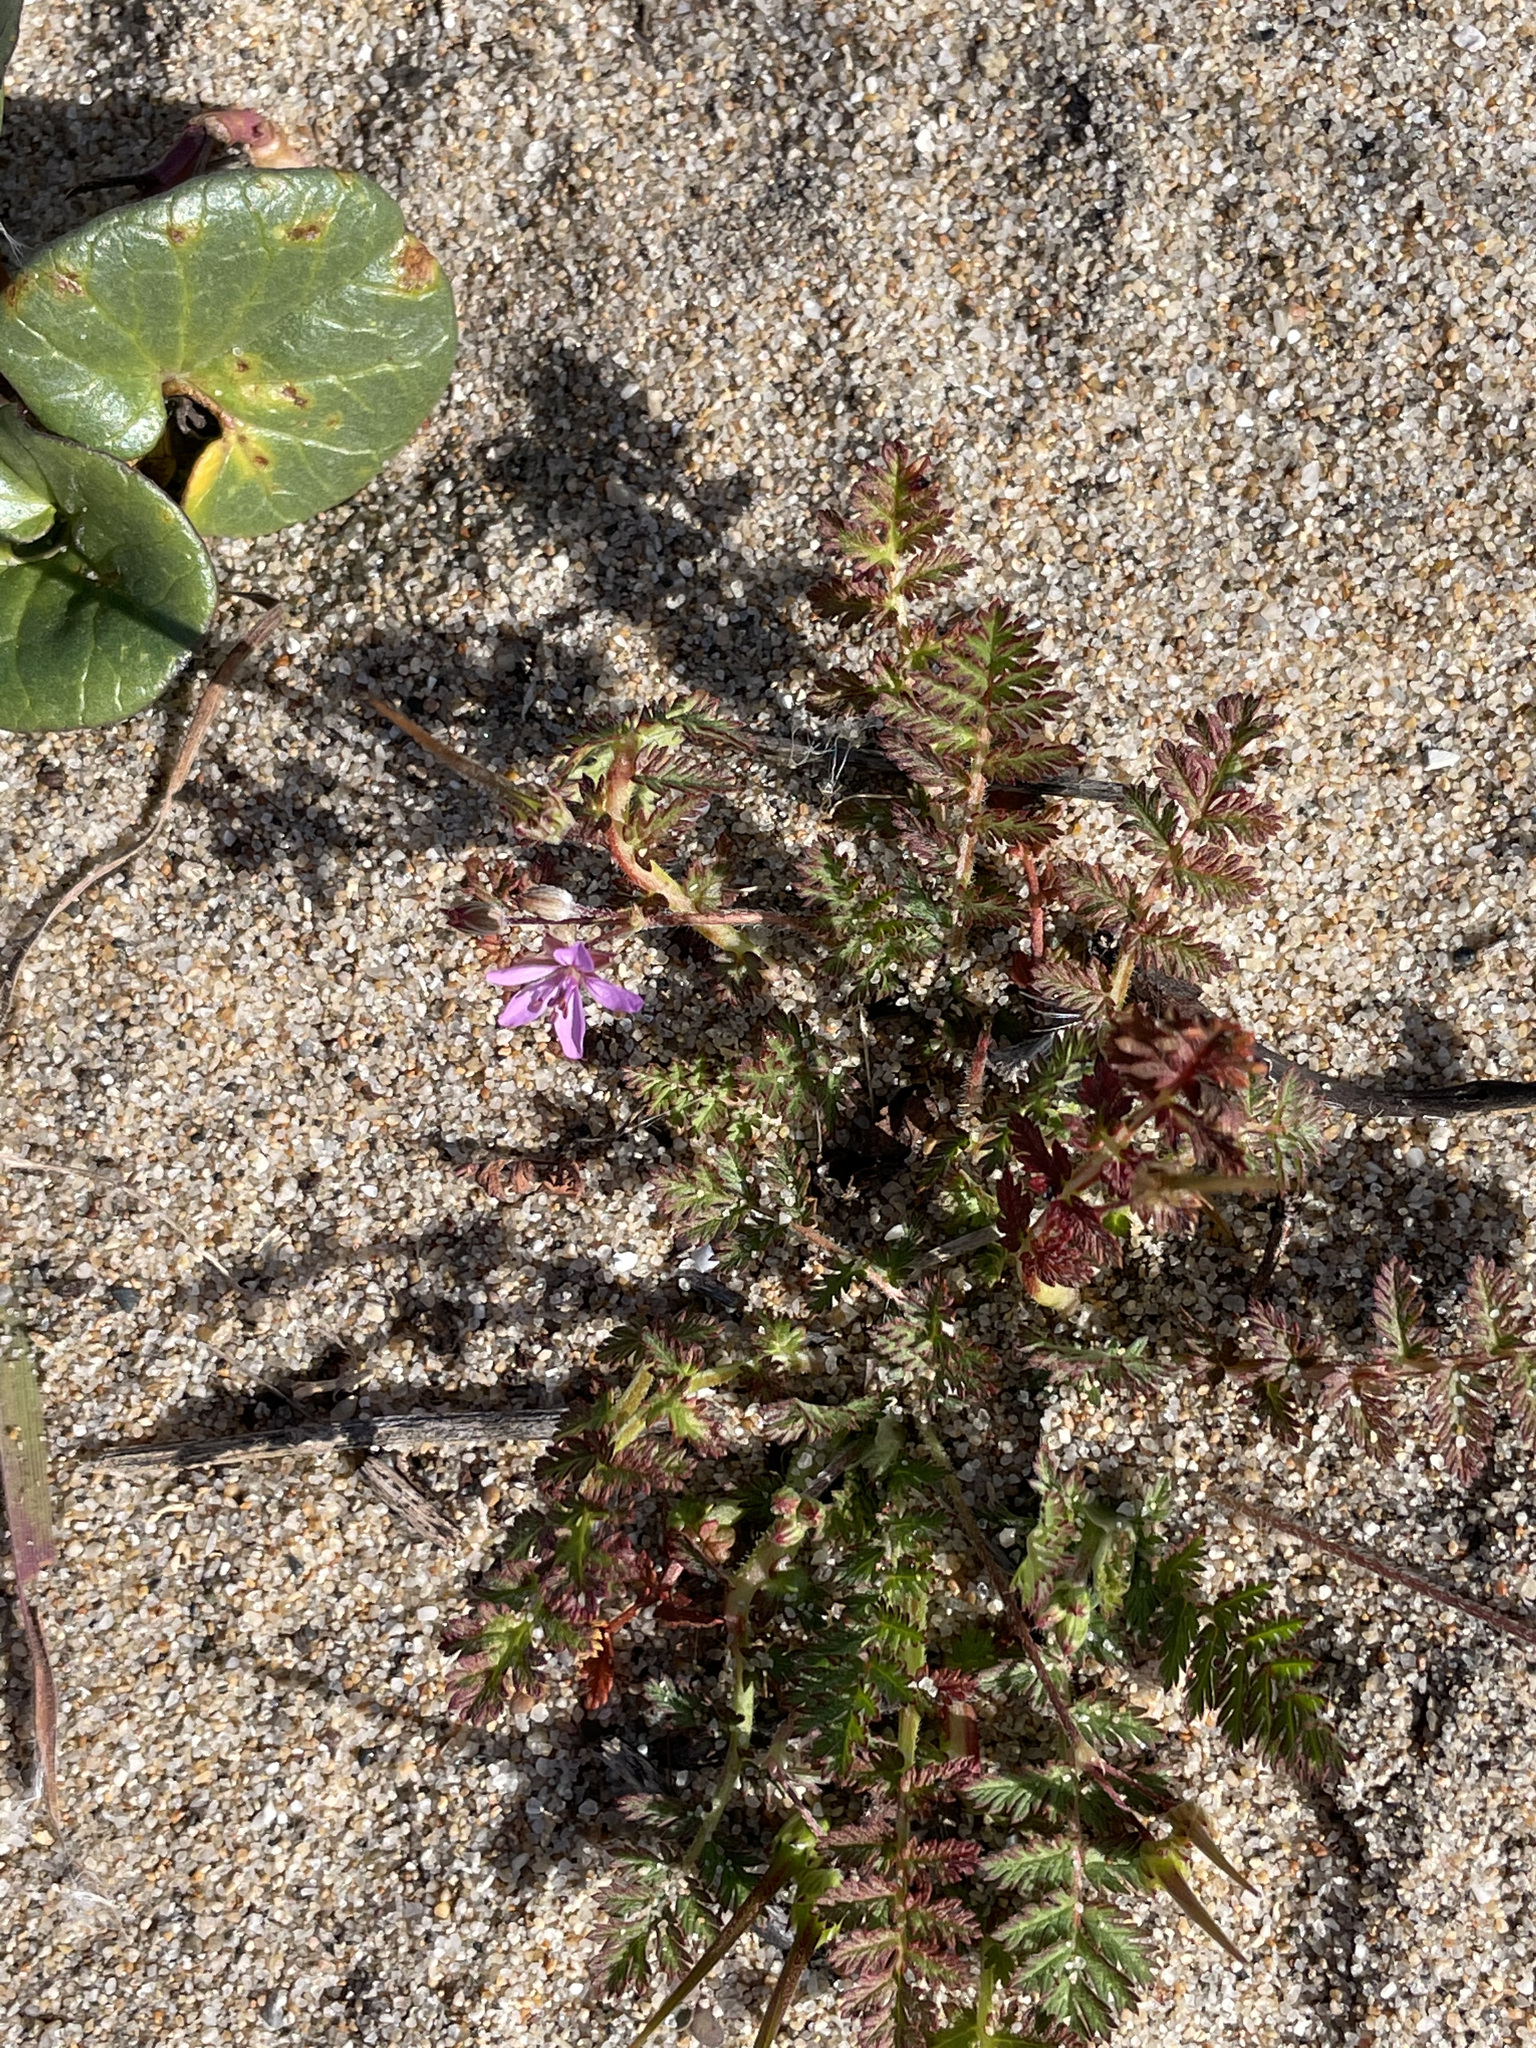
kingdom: Plantae
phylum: Tracheophyta
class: Magnoliopsida
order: Geraniales
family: Geraniaceae
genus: Erodium
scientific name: Erodium cicutarium
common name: Common stork's-bill
